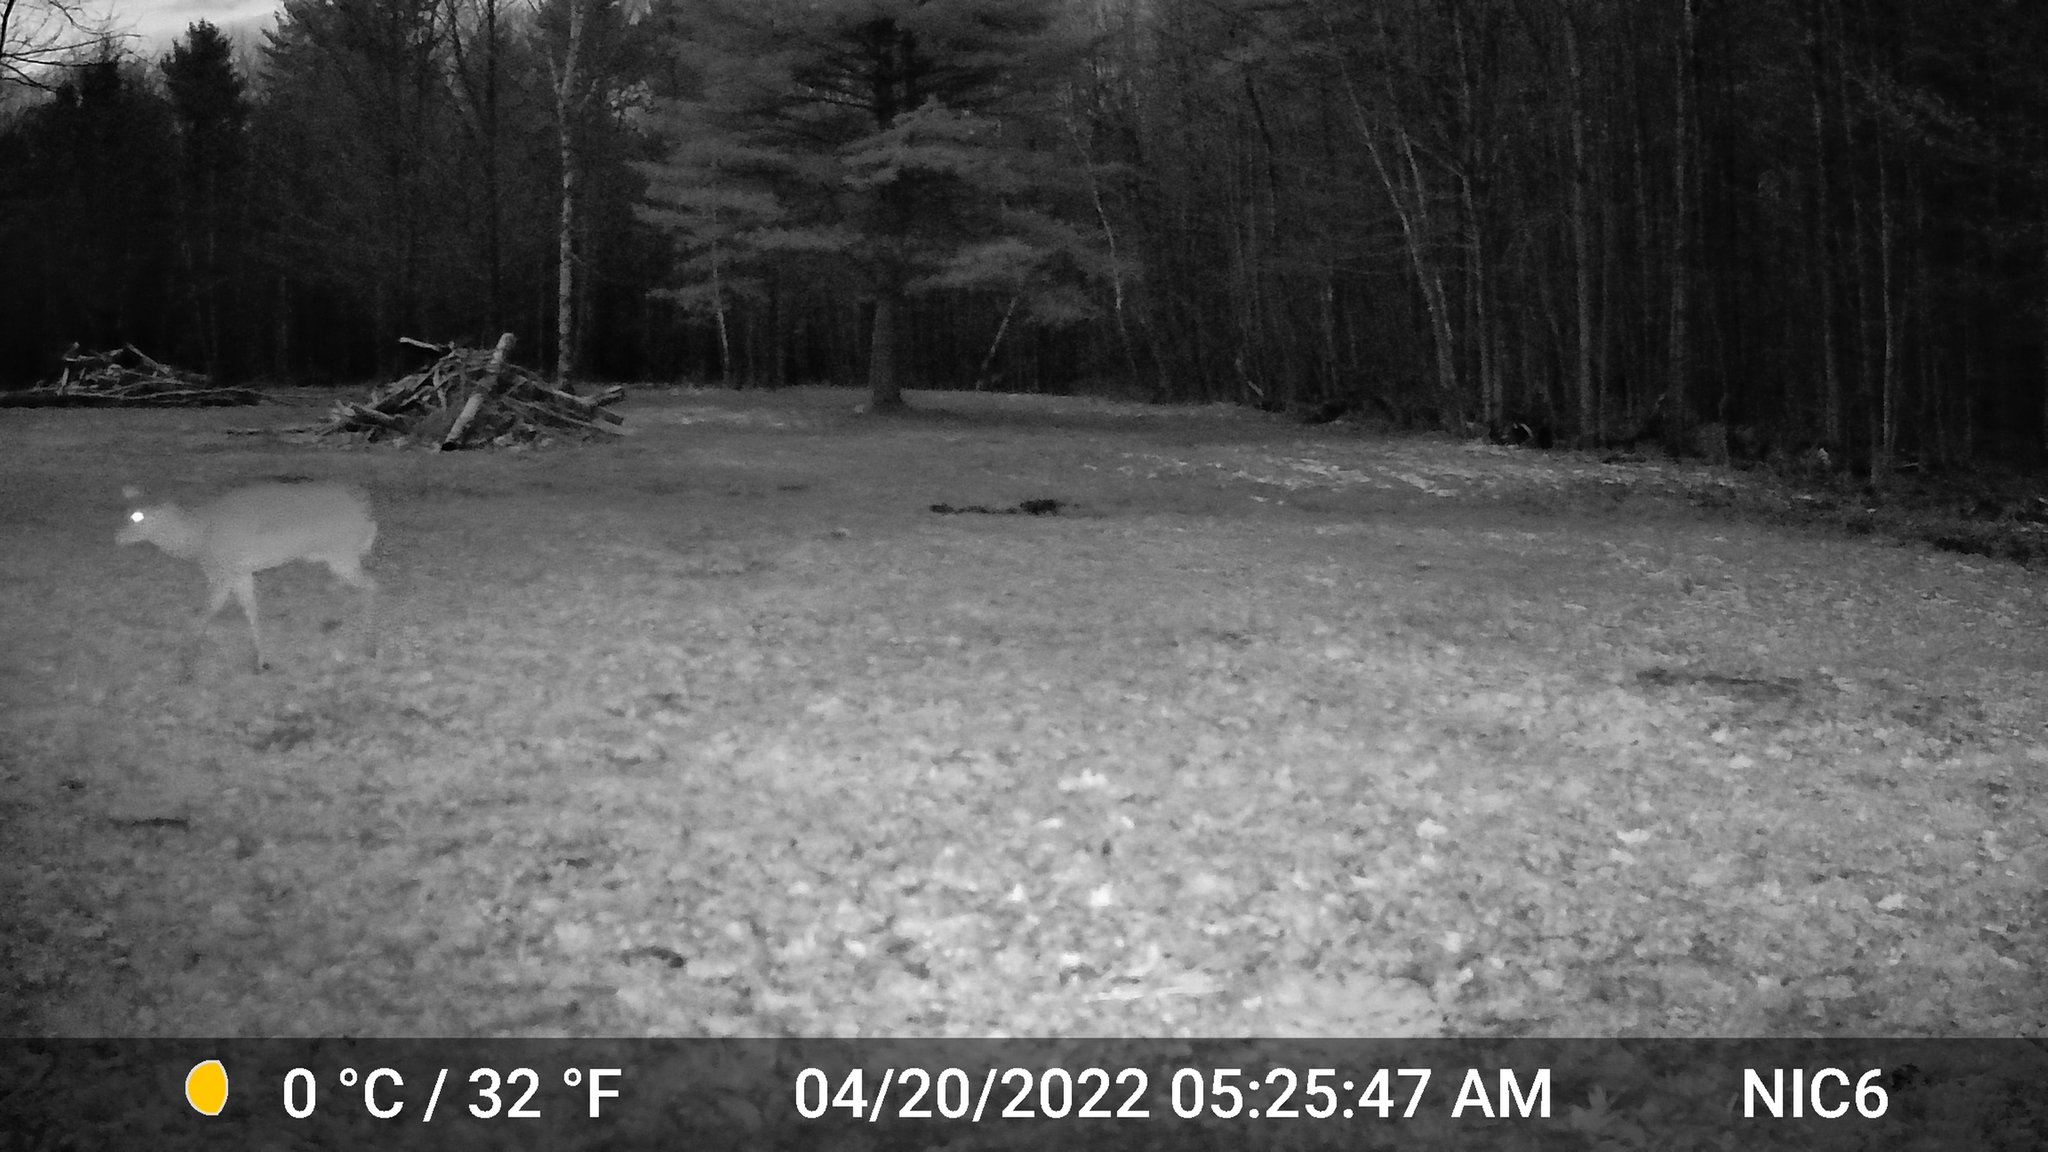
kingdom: Animalia
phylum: Chordata
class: Mammalia
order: Artiodactyla
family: Cervidae
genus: Odocoileus
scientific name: Odocoileus virginianus
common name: White-tailed deer
